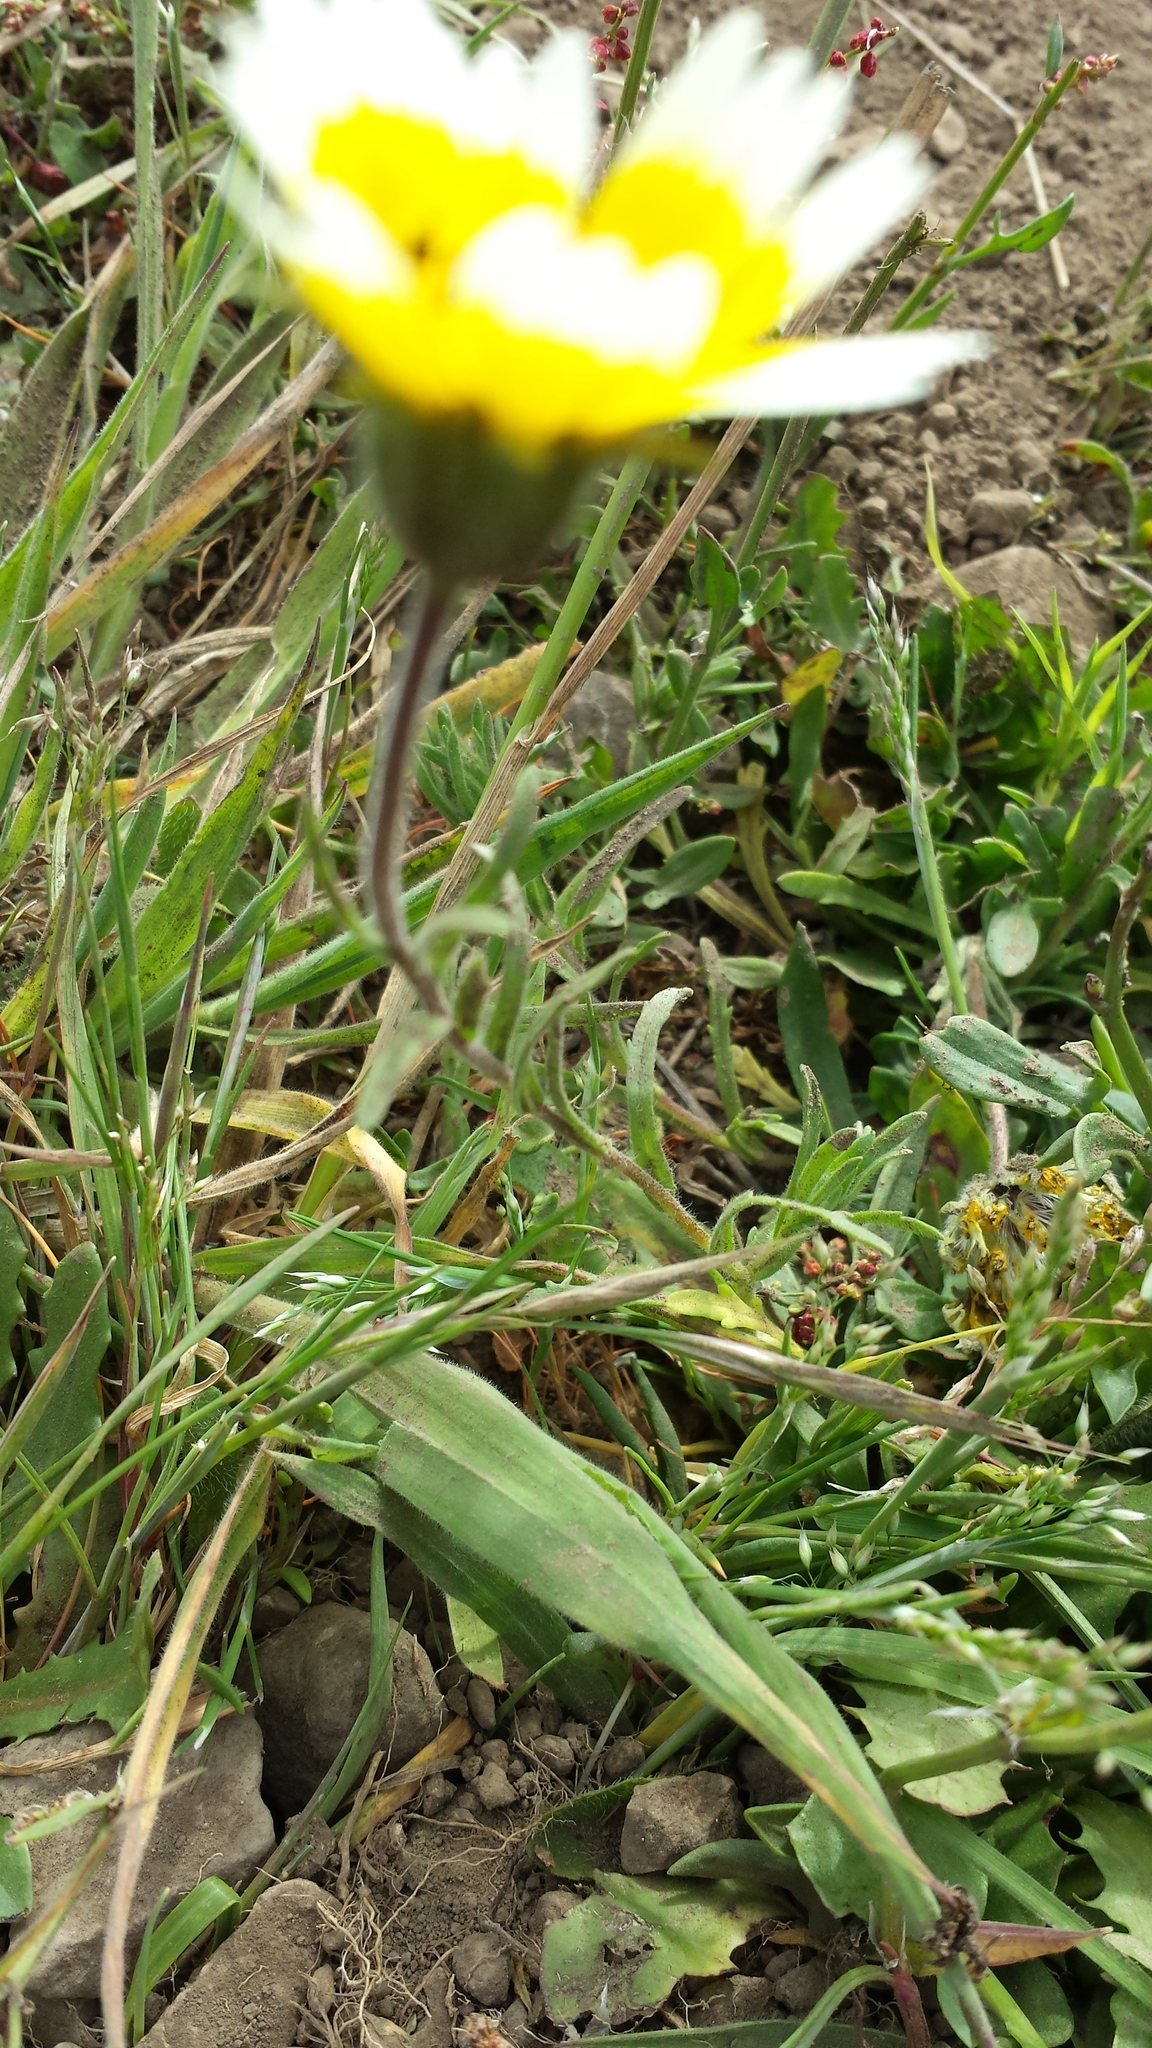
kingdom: Plantae
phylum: Tracheophyta
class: Magnoliopsida
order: Asterales
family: Asteraceae
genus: Layia
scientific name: Layia platyglossa
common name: Tidy-tips
